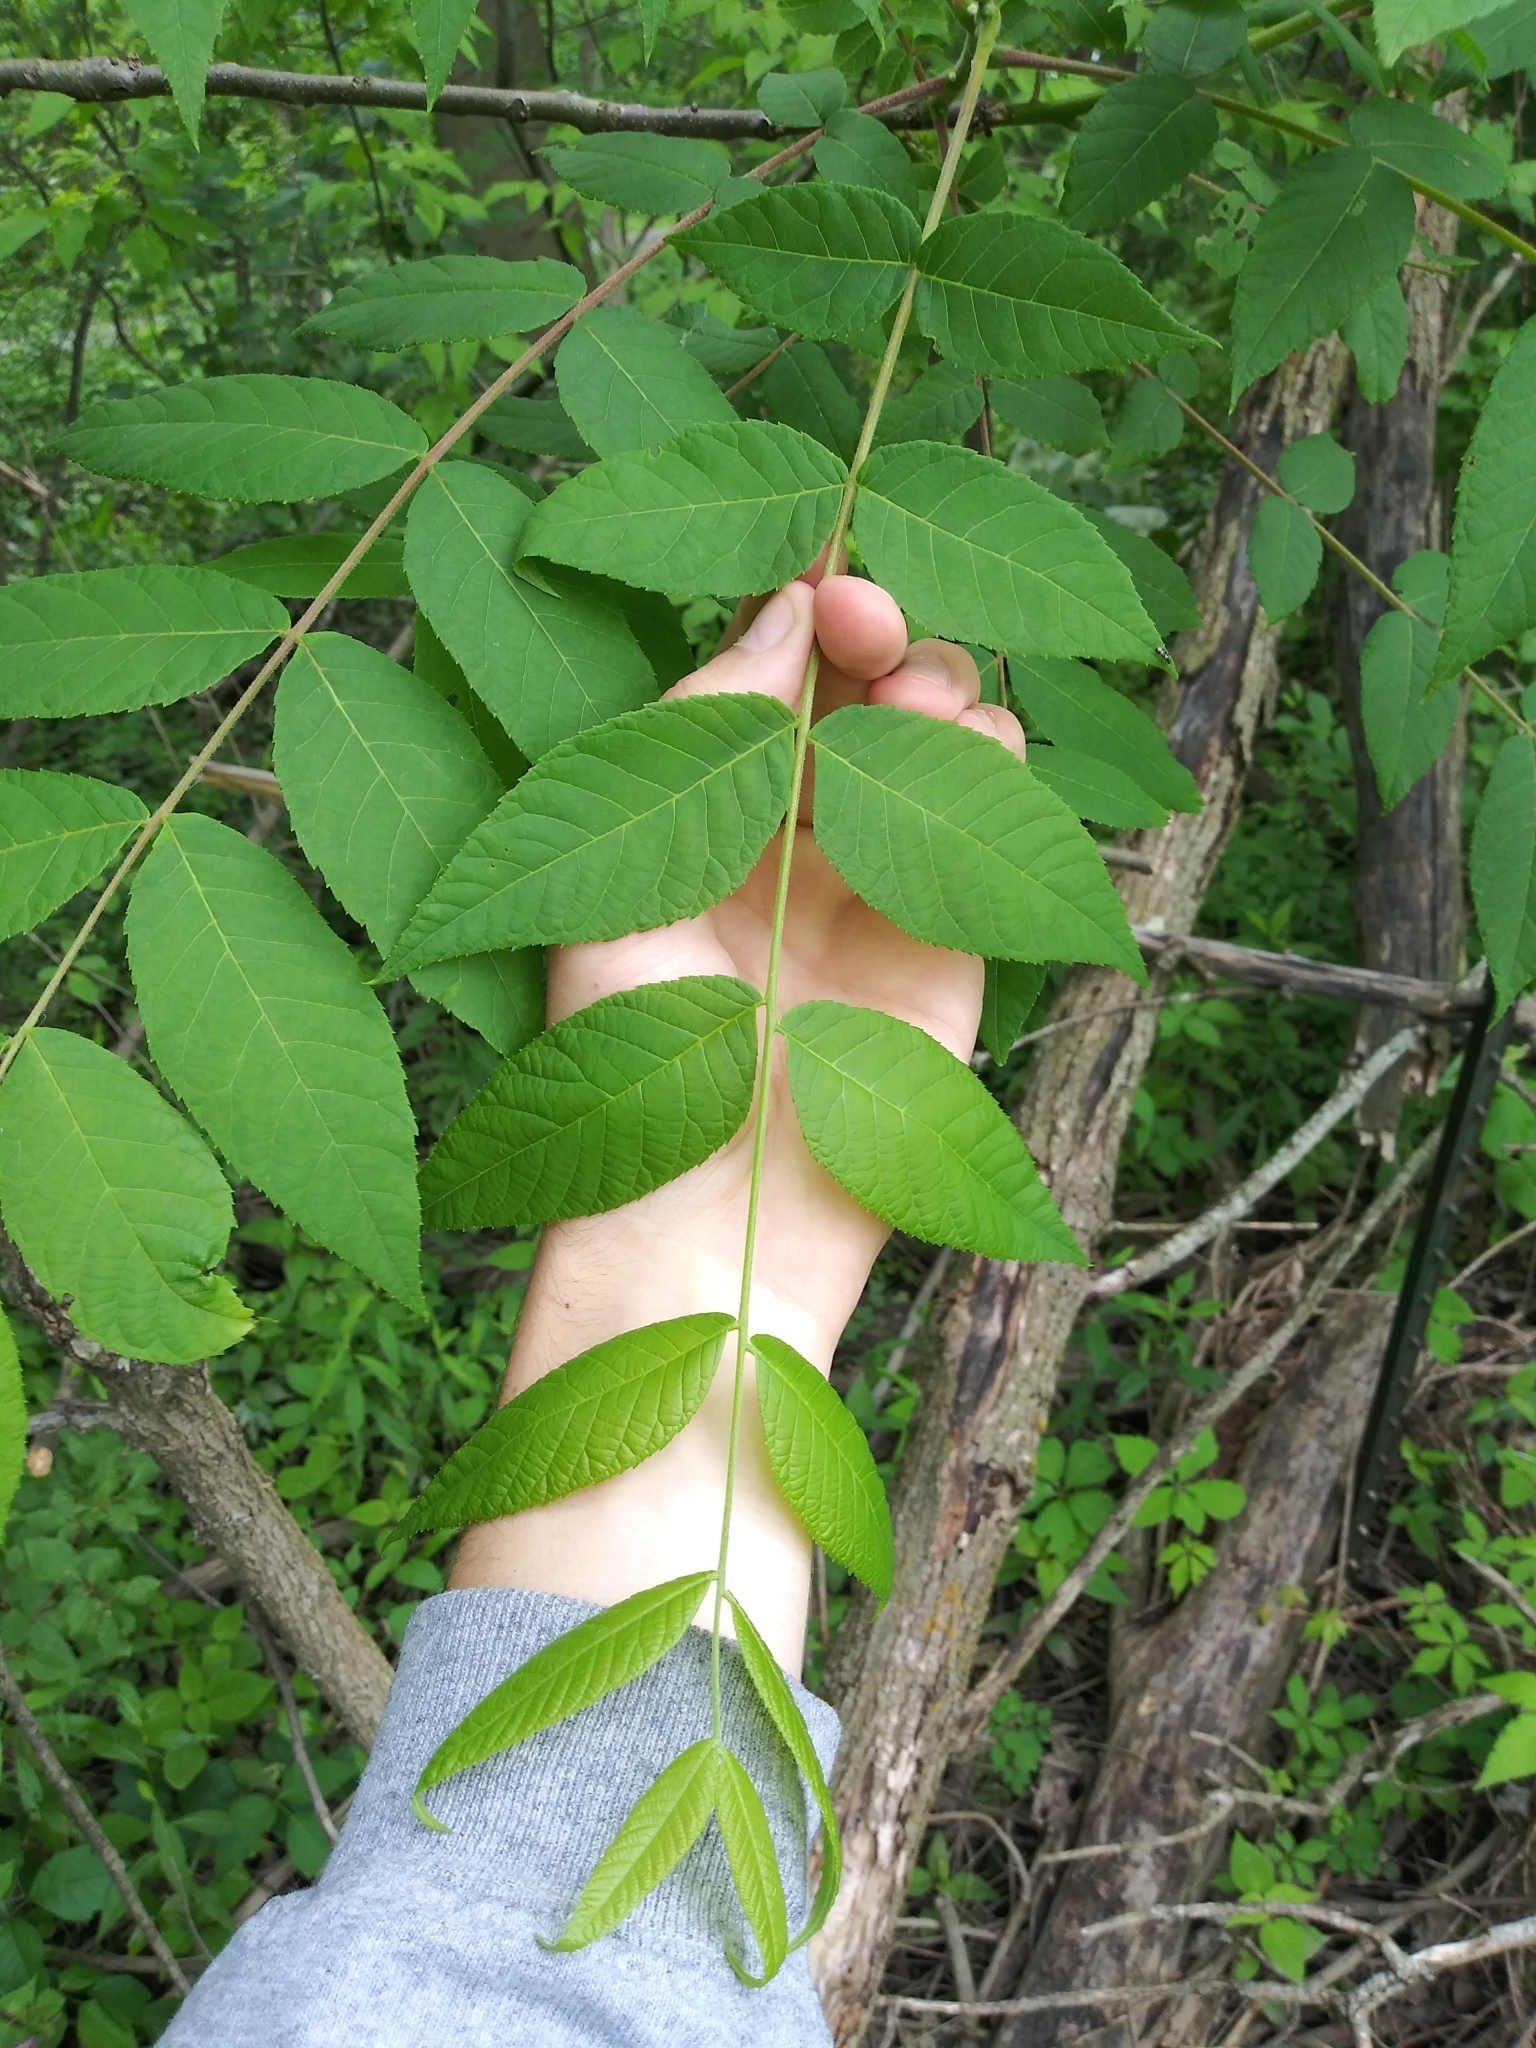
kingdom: Plantae
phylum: Tracheophyta
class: Magnoliopsida
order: Fagales
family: Juglandaceae
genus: Juglans
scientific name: Juglans nigra
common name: Black walnut
